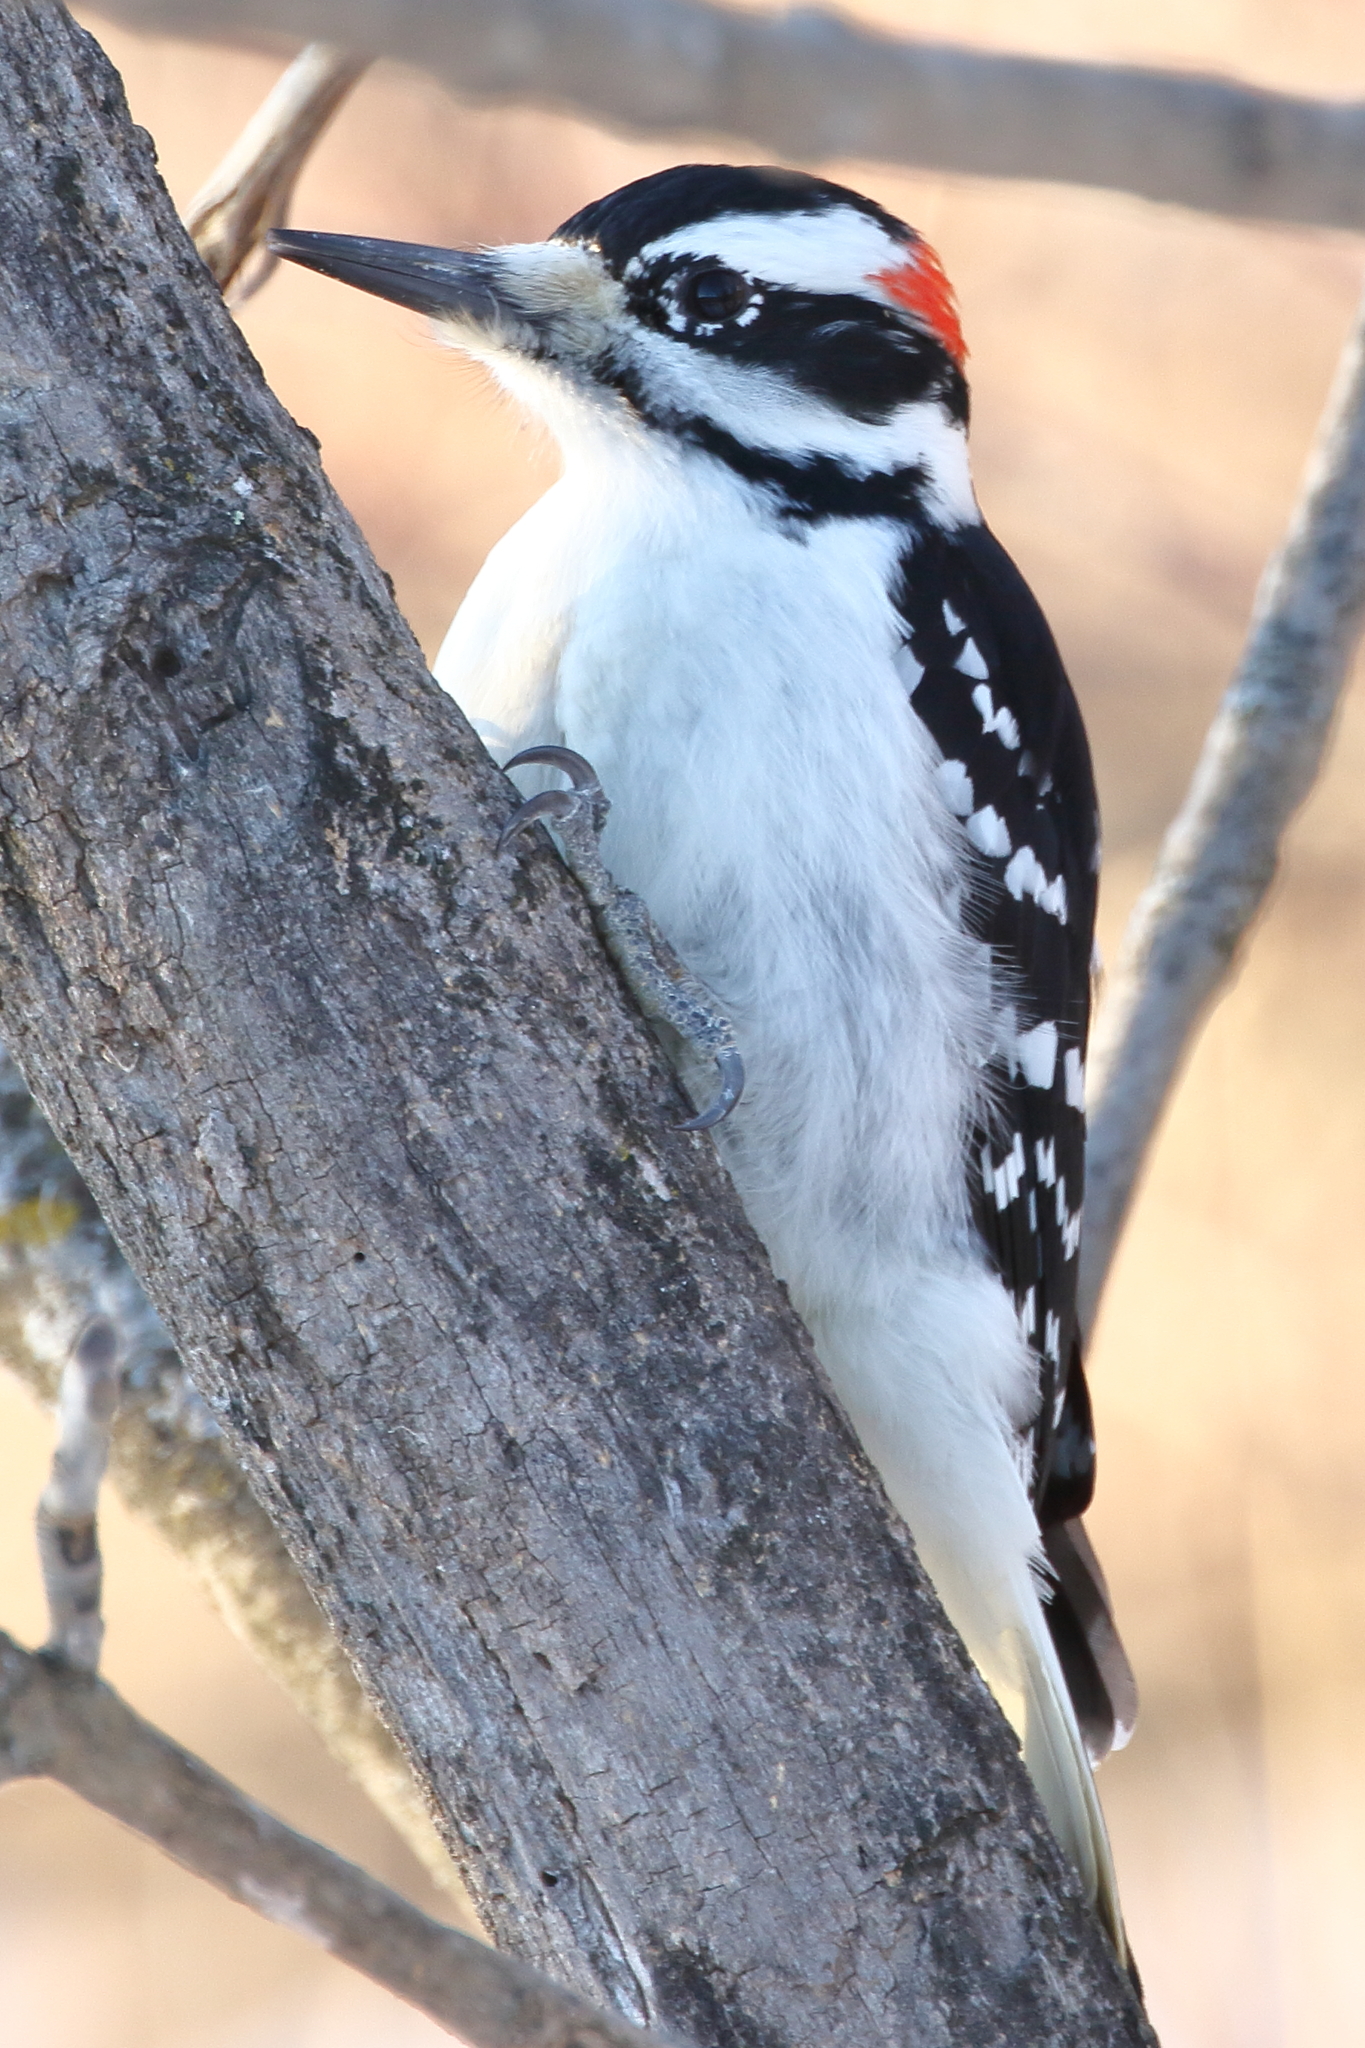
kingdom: Animalia
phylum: Chordata
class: Aves
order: Piciformes
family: Picidae
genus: Leuconotopicus
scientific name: Leuconotopicus villosus
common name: Hairy woodpecker
